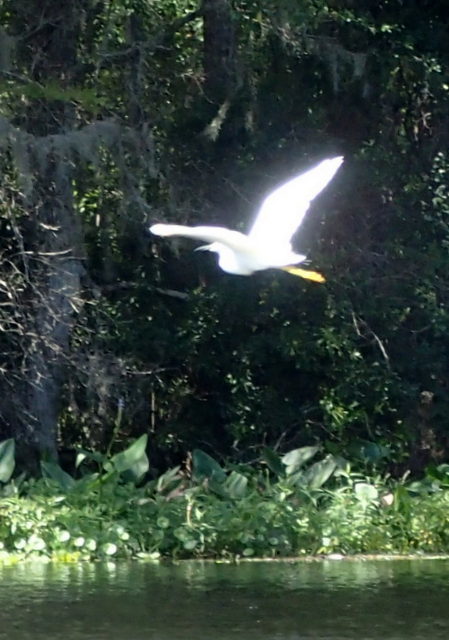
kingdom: Animalia
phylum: Chordata
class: Aves
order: Pelecaniformes
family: Ardeidae
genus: Egretta
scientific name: Egretta thula
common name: Snowy egret
